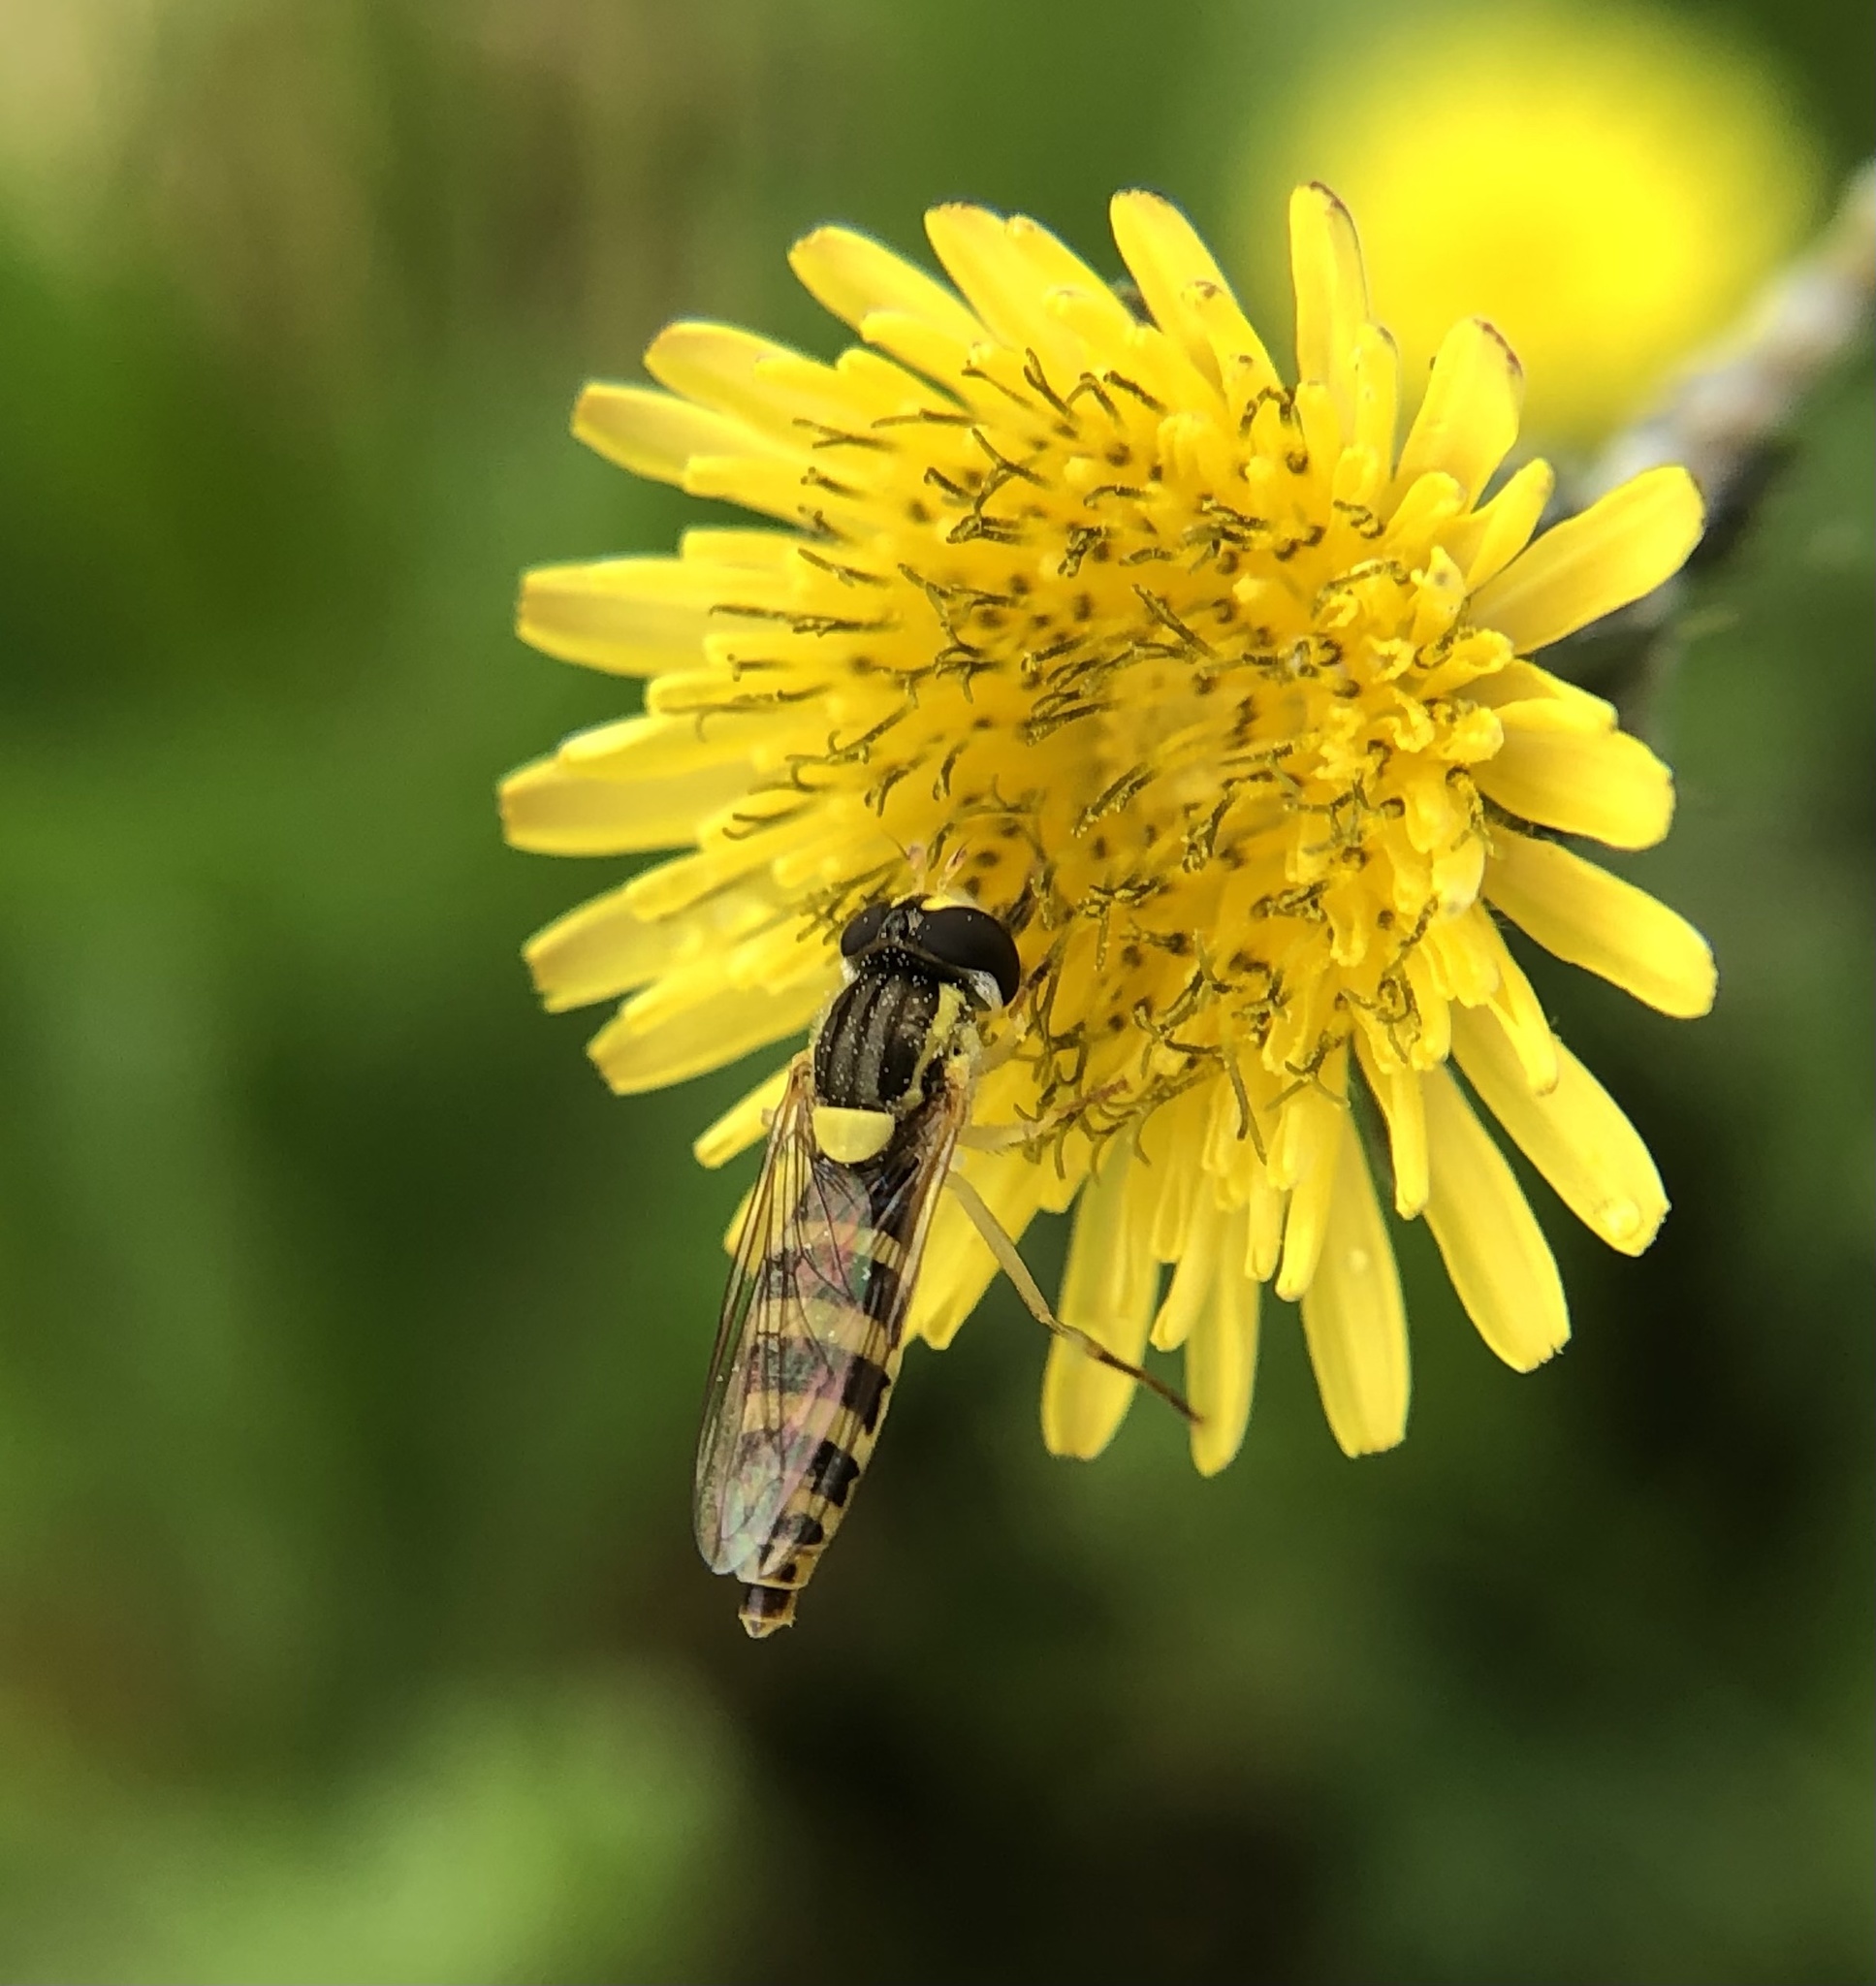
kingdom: Animalia
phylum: Arthropoda
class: Insecta
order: Diptera
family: Syrphidae
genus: Sphaerophoria
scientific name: Sphaerophoria
